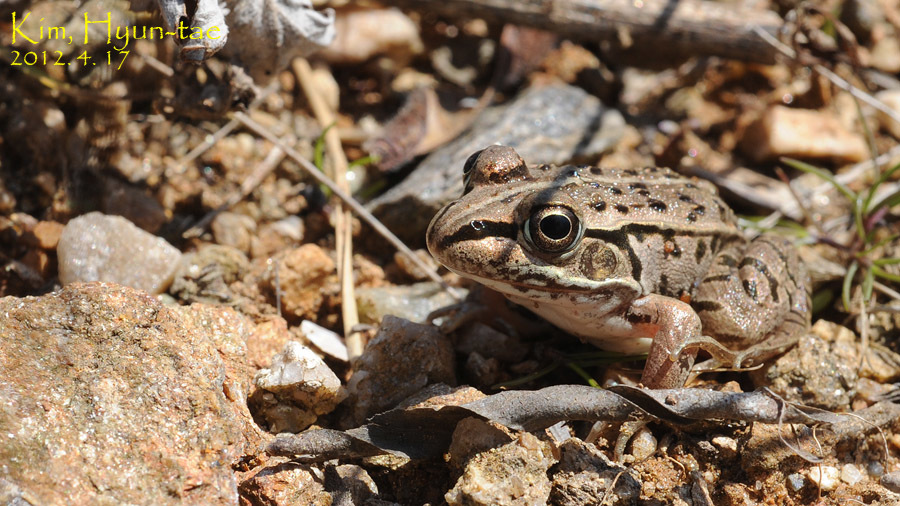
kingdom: Animalia
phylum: Chordata
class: Amphibia
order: Anura
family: Ranidae
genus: Pelophylax
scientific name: Pelophylax nigromaculatus
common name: Black-spotted pond frog
